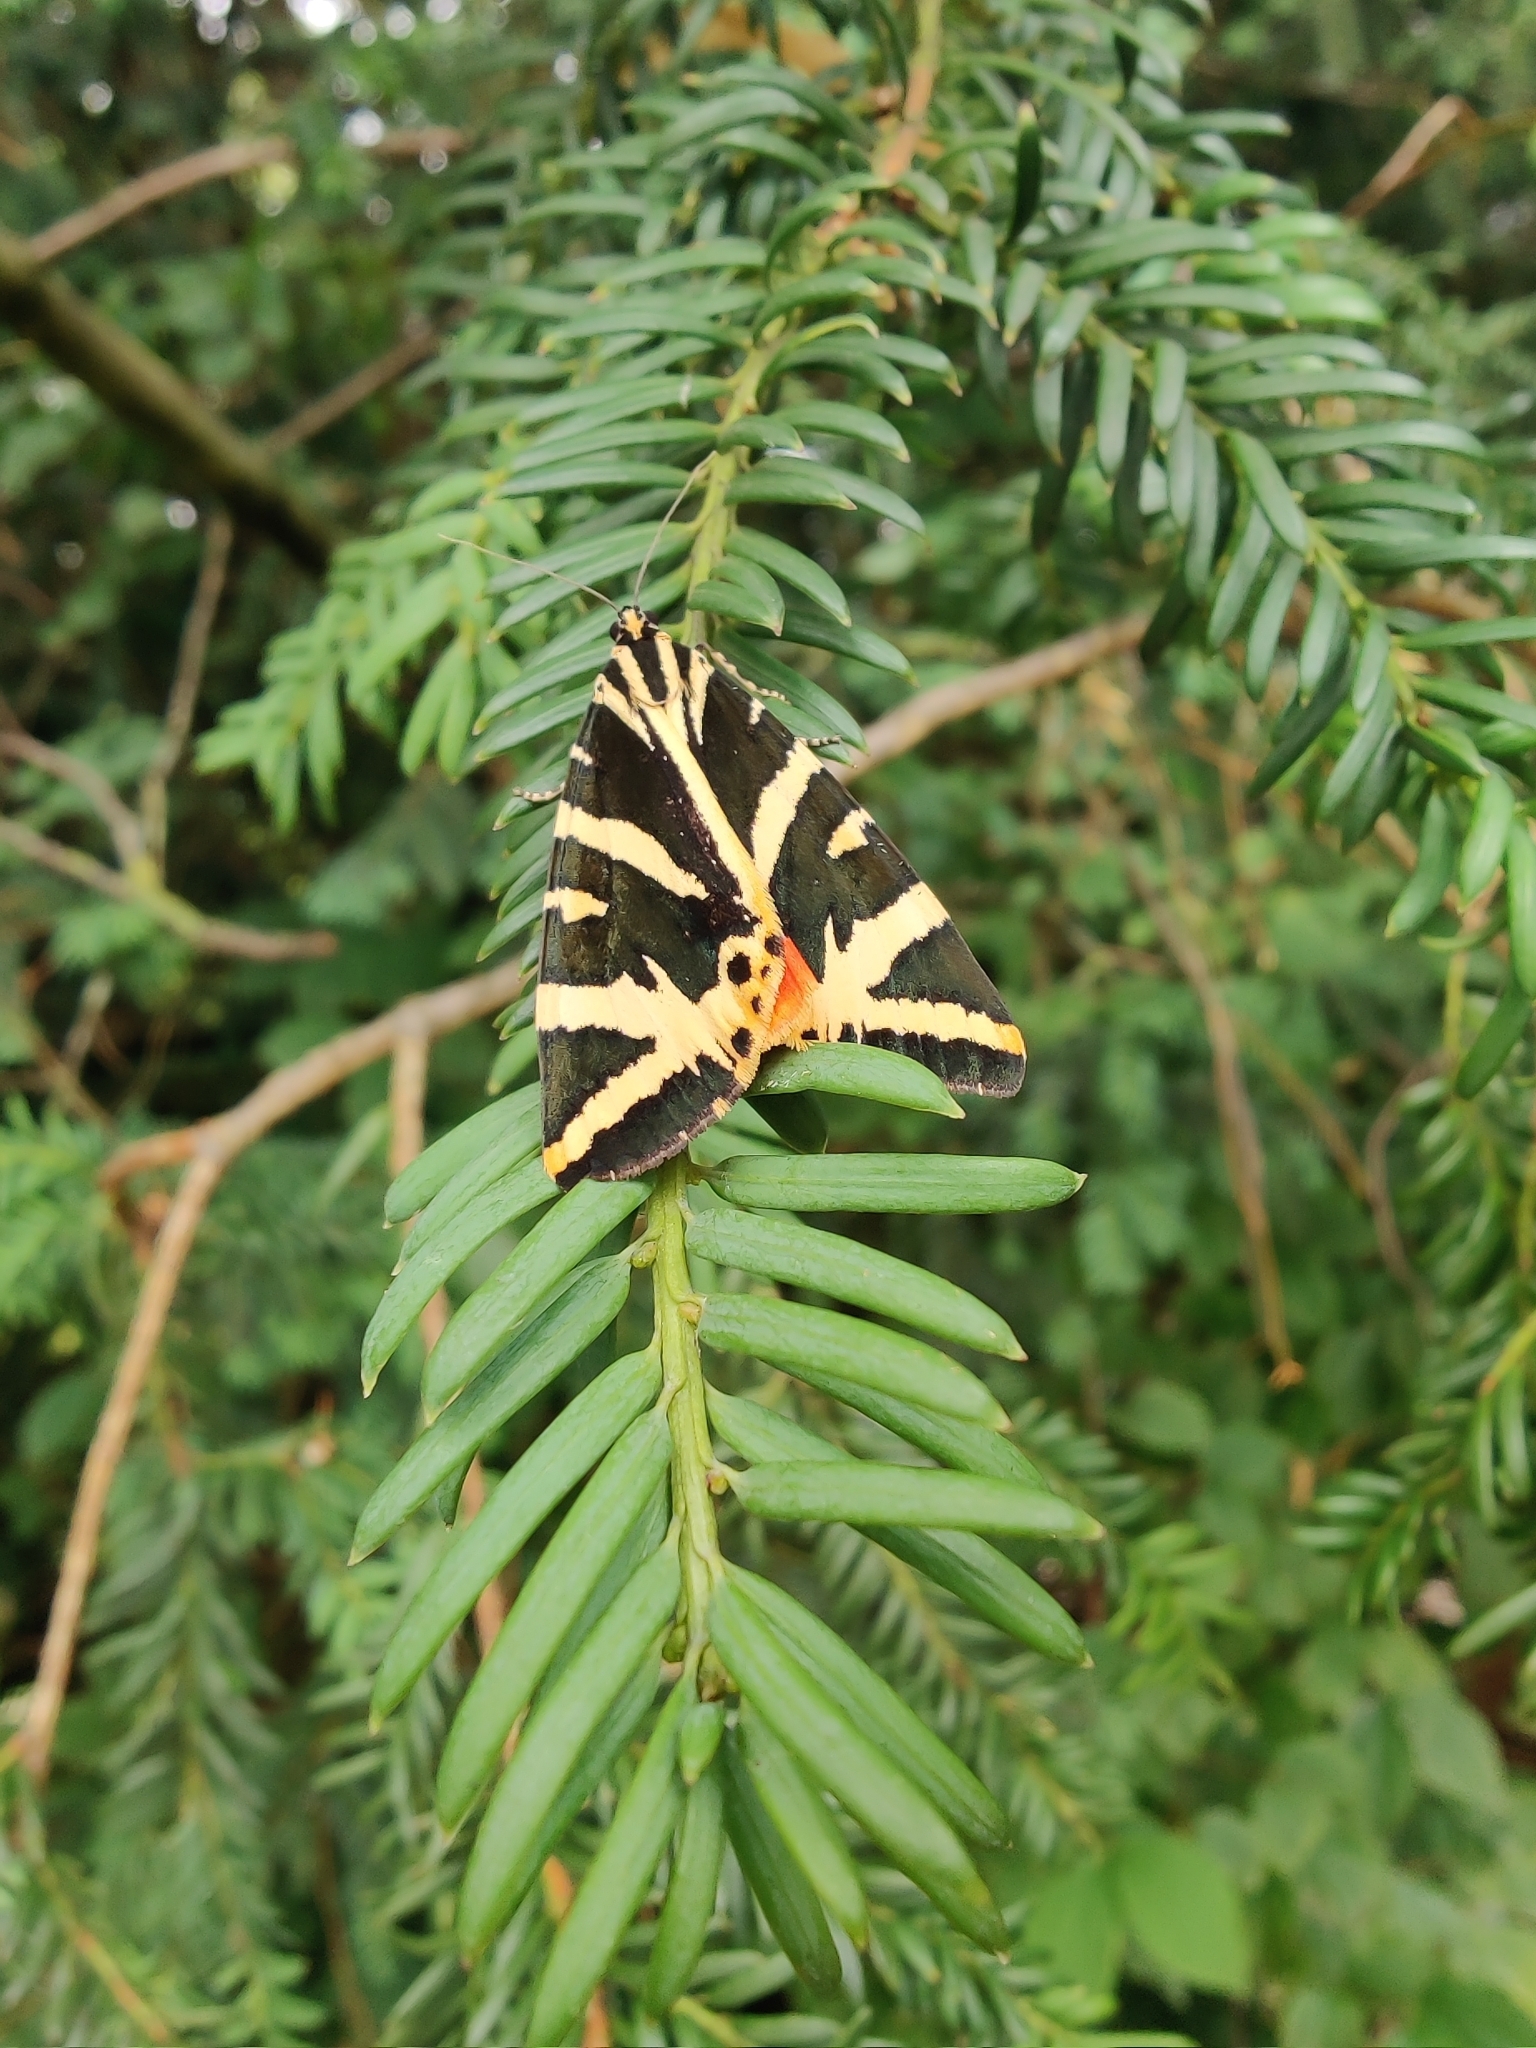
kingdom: Animalia
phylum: Arthropoda
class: Insecta
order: Lepidoptera
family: Erebidae
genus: Euplagia
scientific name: Euplagia quadripunctaria
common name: Jersey tiger
